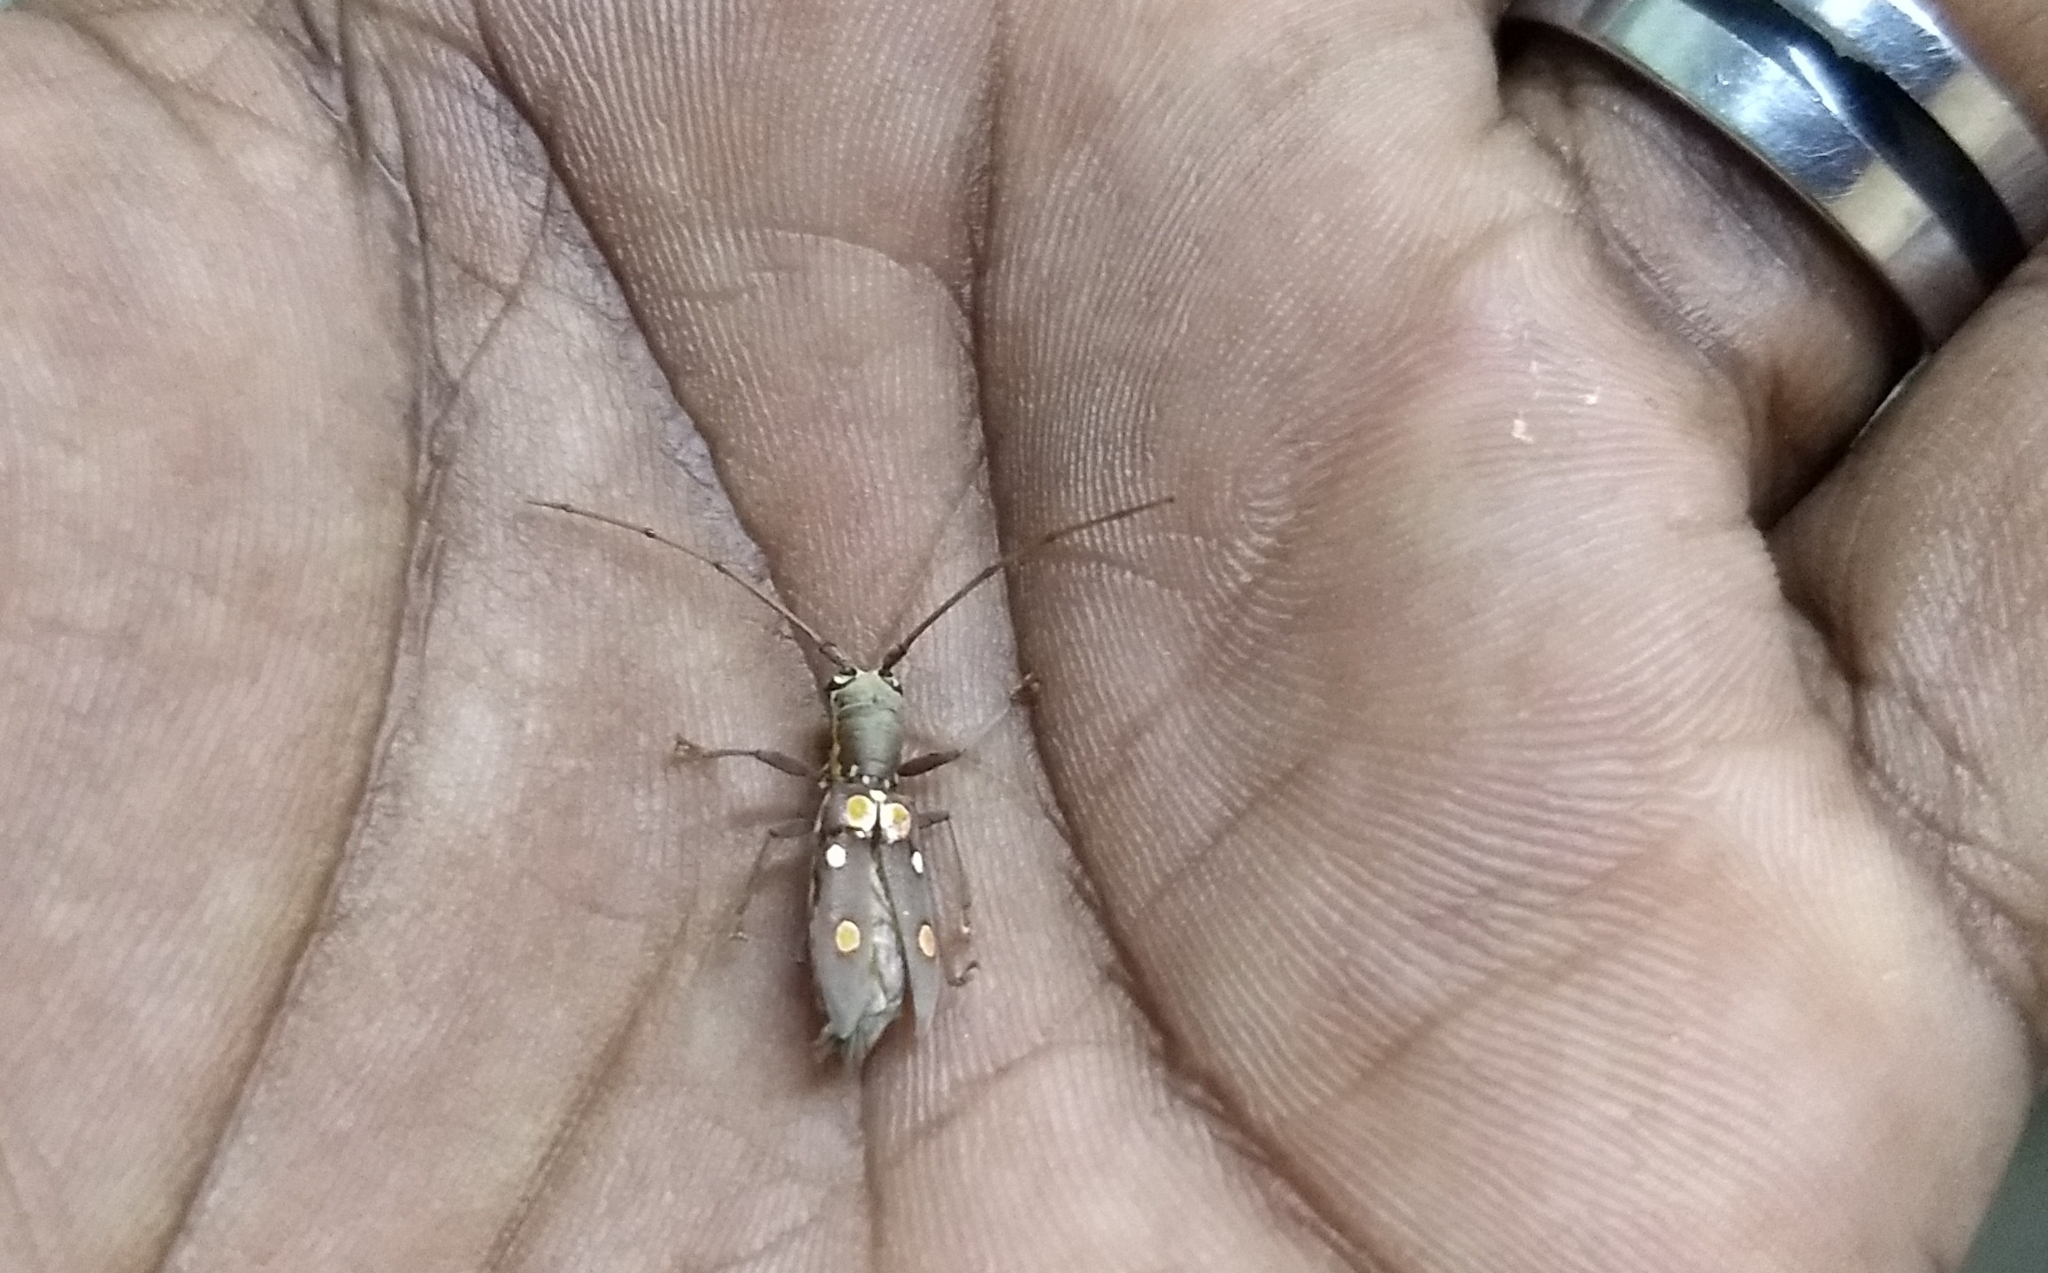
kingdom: Animalia
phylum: Arthropoda
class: Insecta
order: Coleoptera
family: Cerambycidae
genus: Olenecamptus
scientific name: Olenecamptus bilobus
